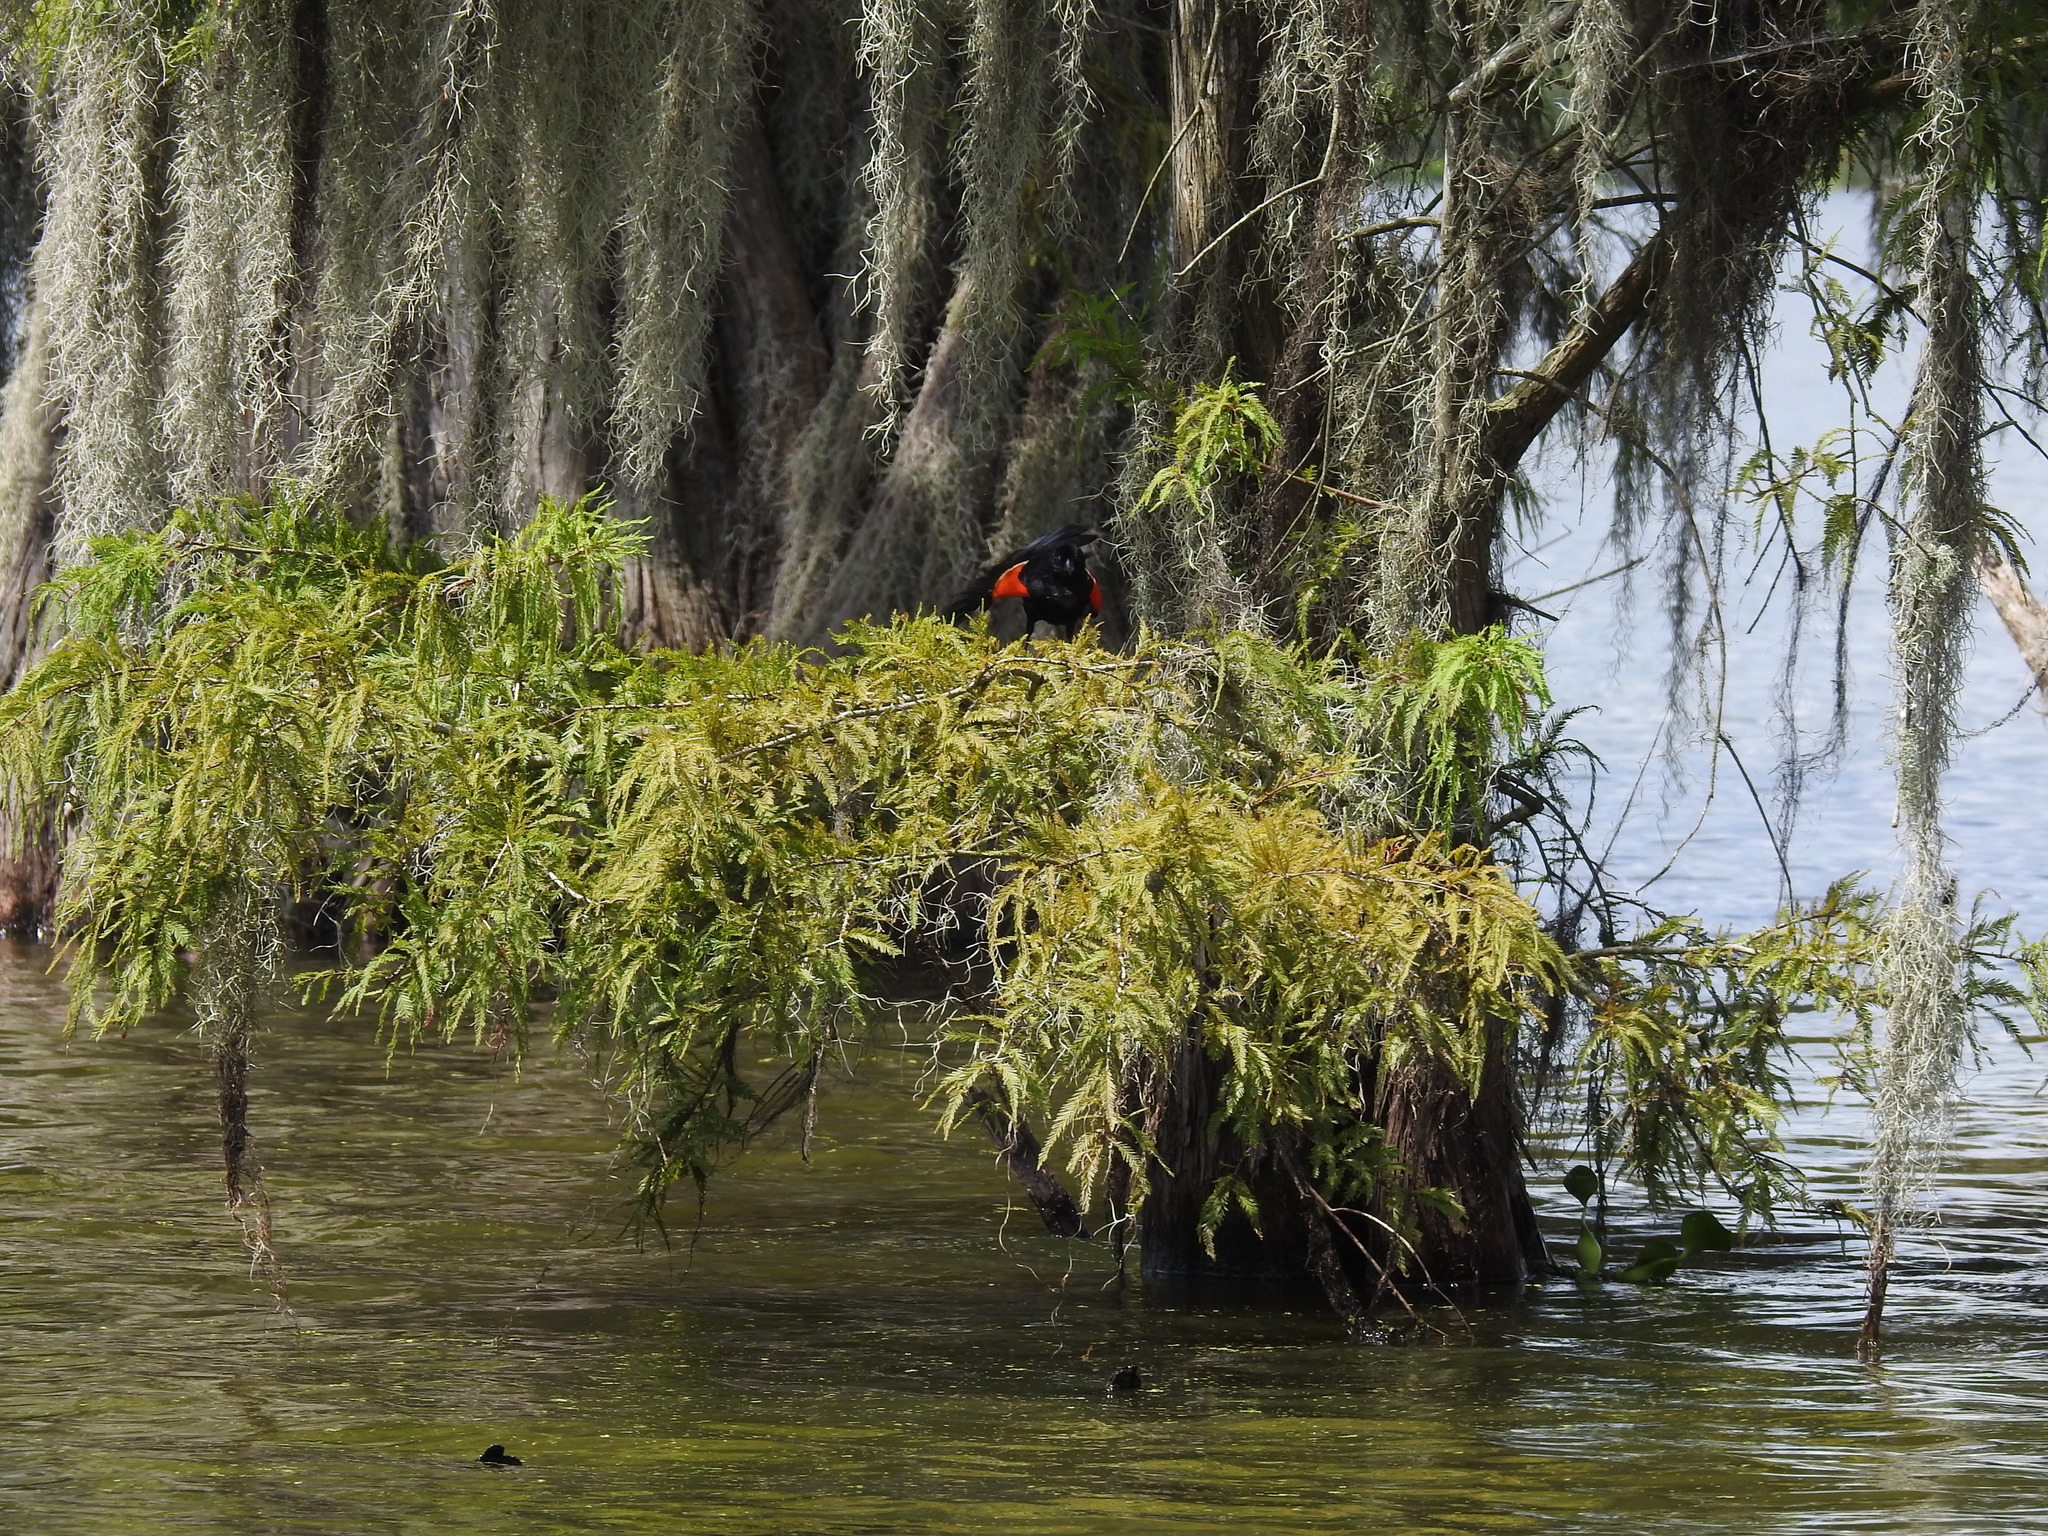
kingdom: Animalia
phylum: Chordata
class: Aves
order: Passeriformes
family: Icteridae
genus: Agelaius
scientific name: Agelaius phoeniceus
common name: Red-winged blackbird
